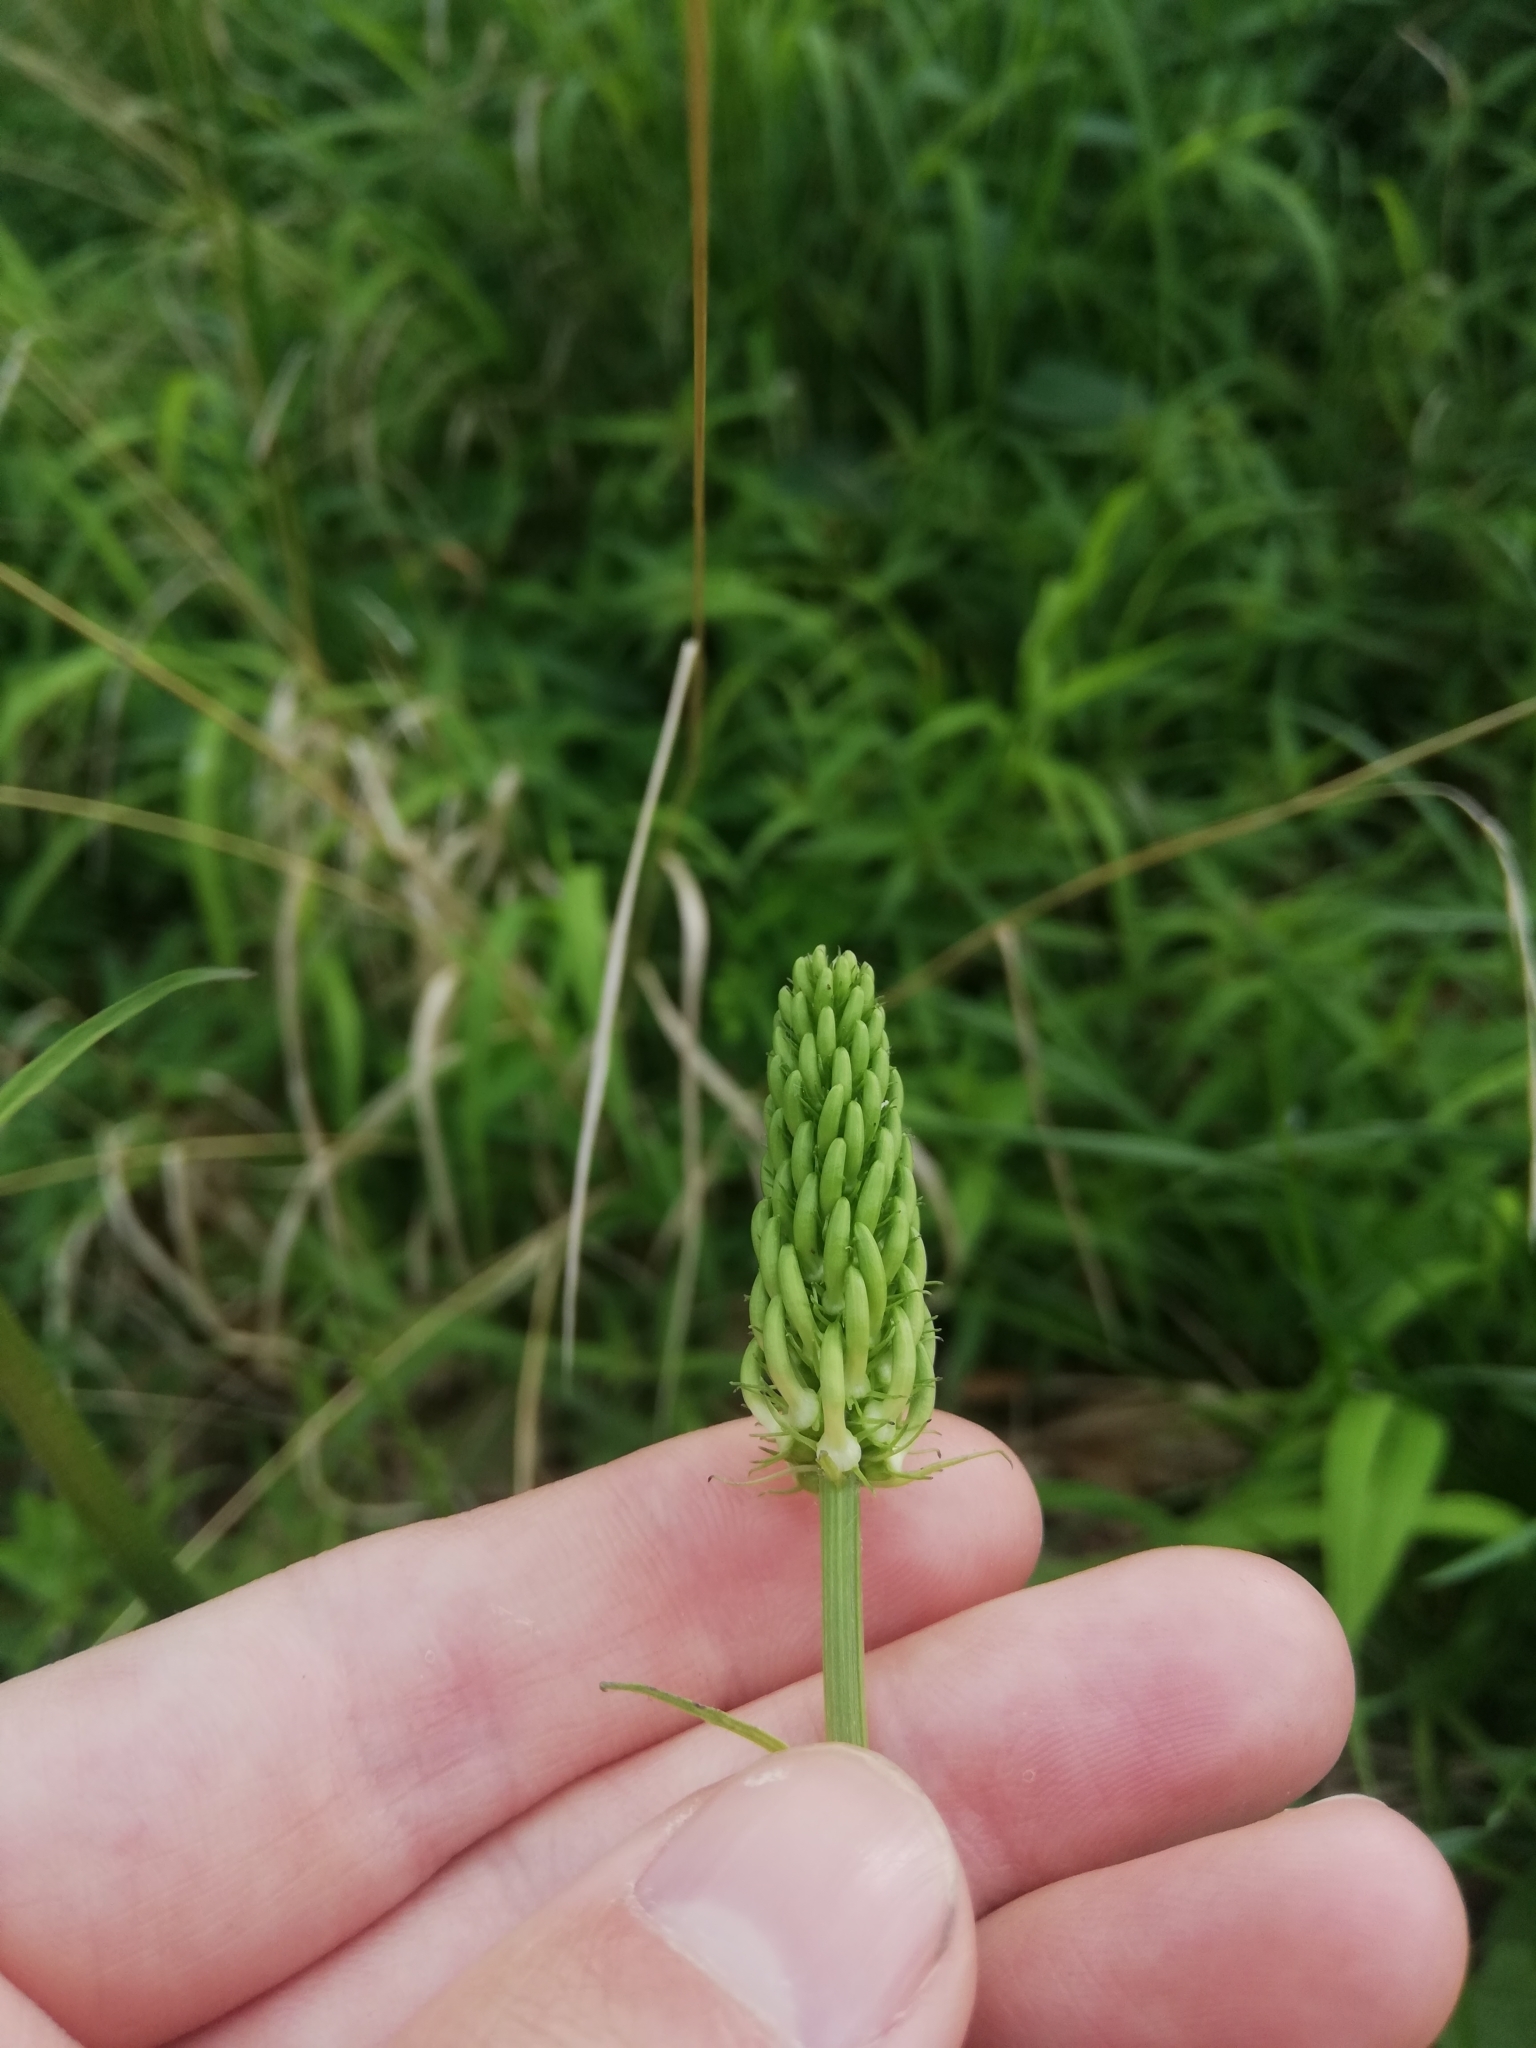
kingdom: Plantae
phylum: Tracheophyta
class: Magnoliopsida
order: Asterales
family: Campanulaceae
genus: Phyteuma
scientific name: Phyteuma spicatum
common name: Spiked rampion
